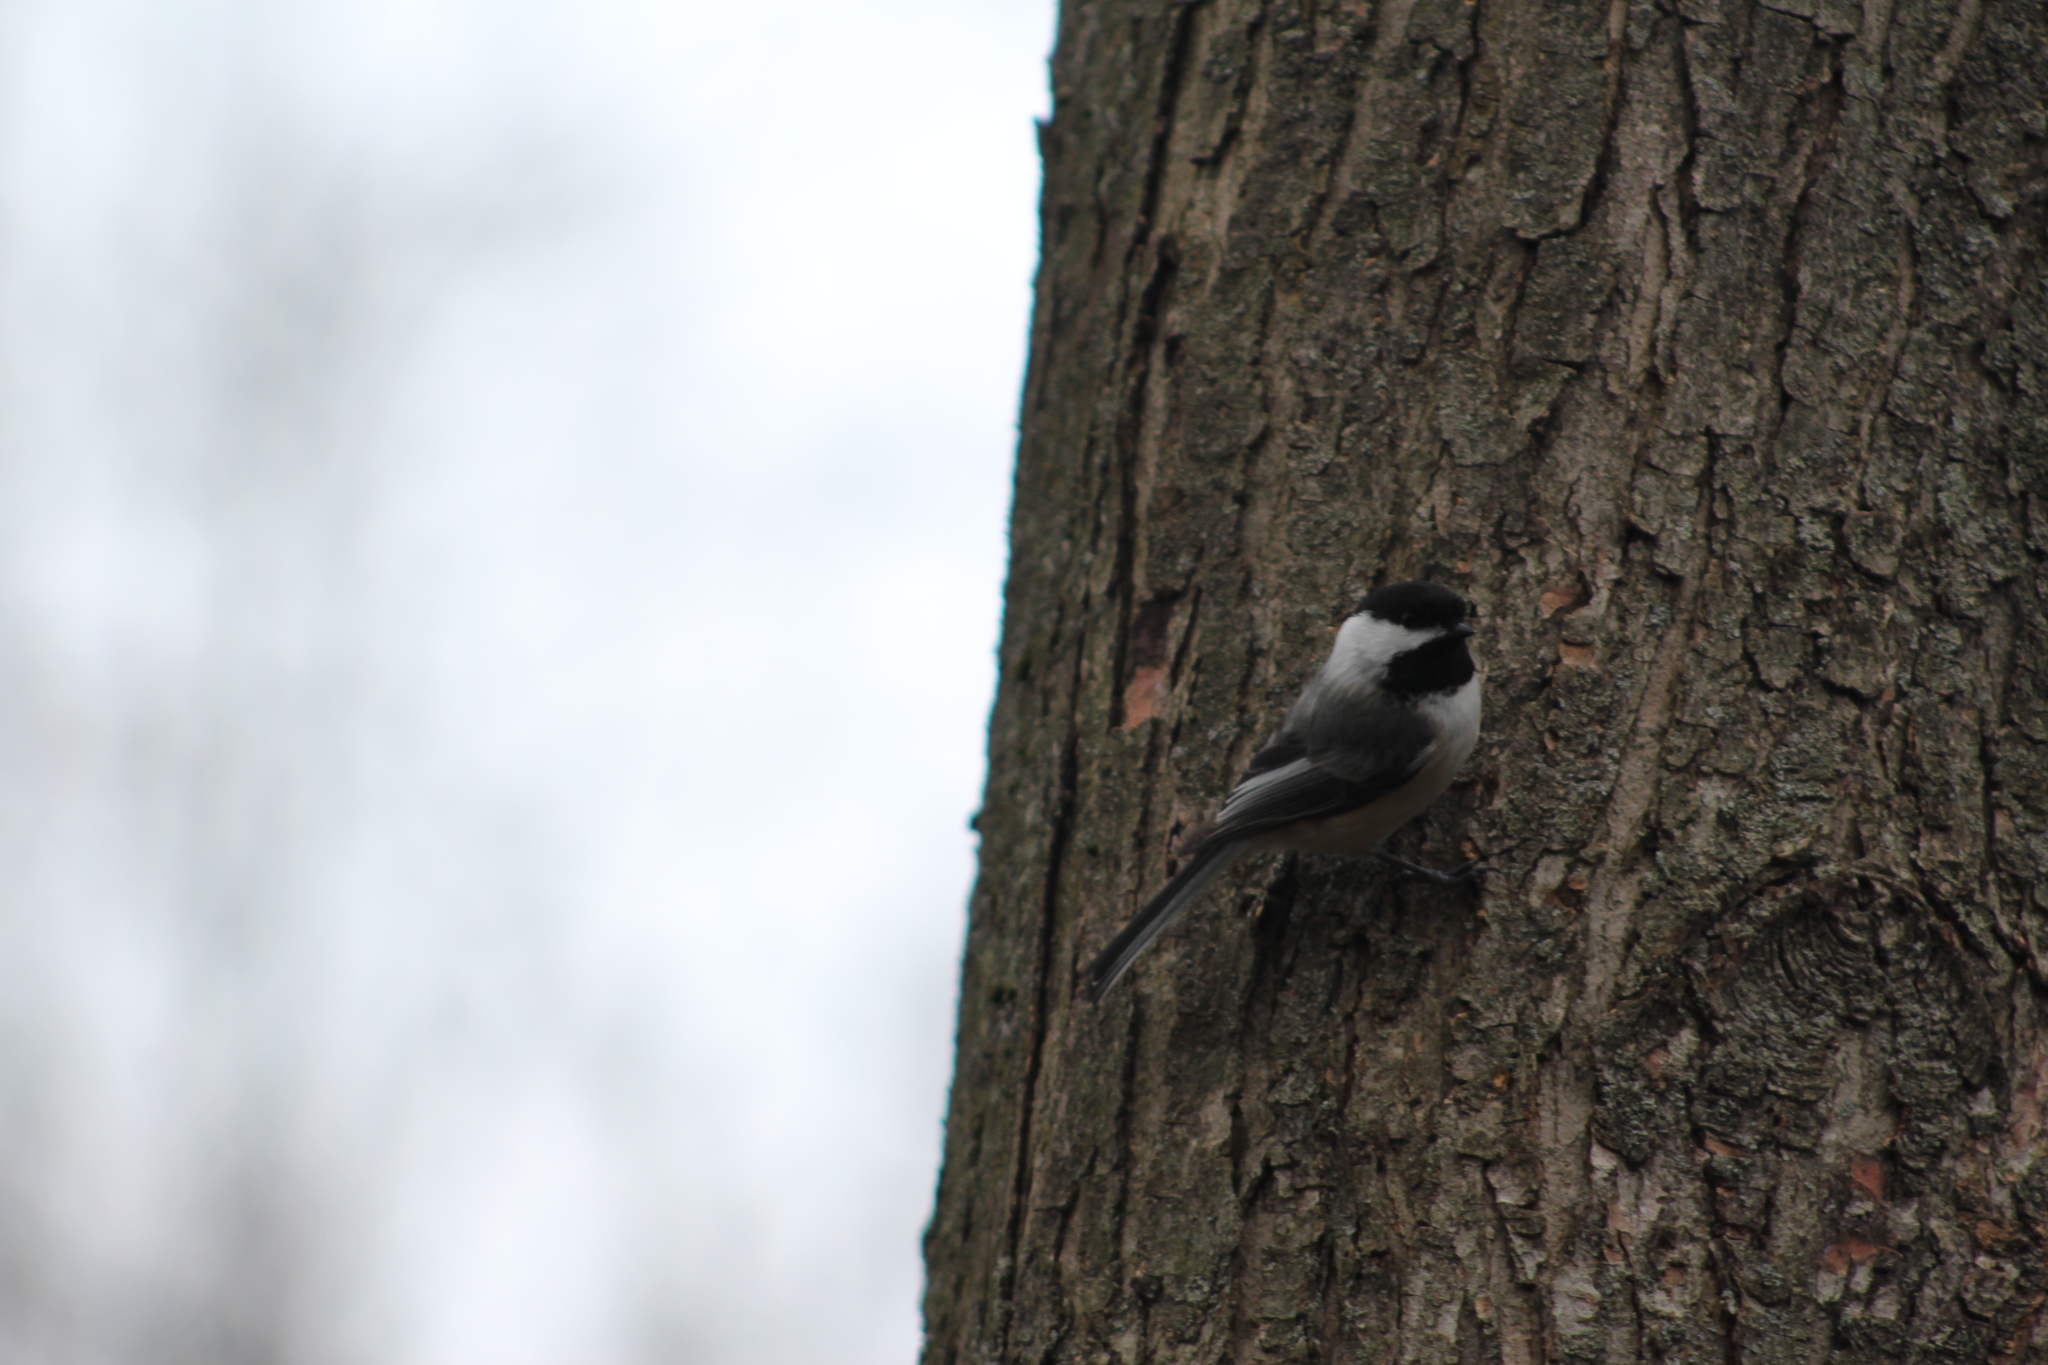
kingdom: Animalia
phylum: Chordata
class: Aves
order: Passeriformes
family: Paridae
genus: Poecile
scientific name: Poecile atricapillus
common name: Black-capped chickadee
